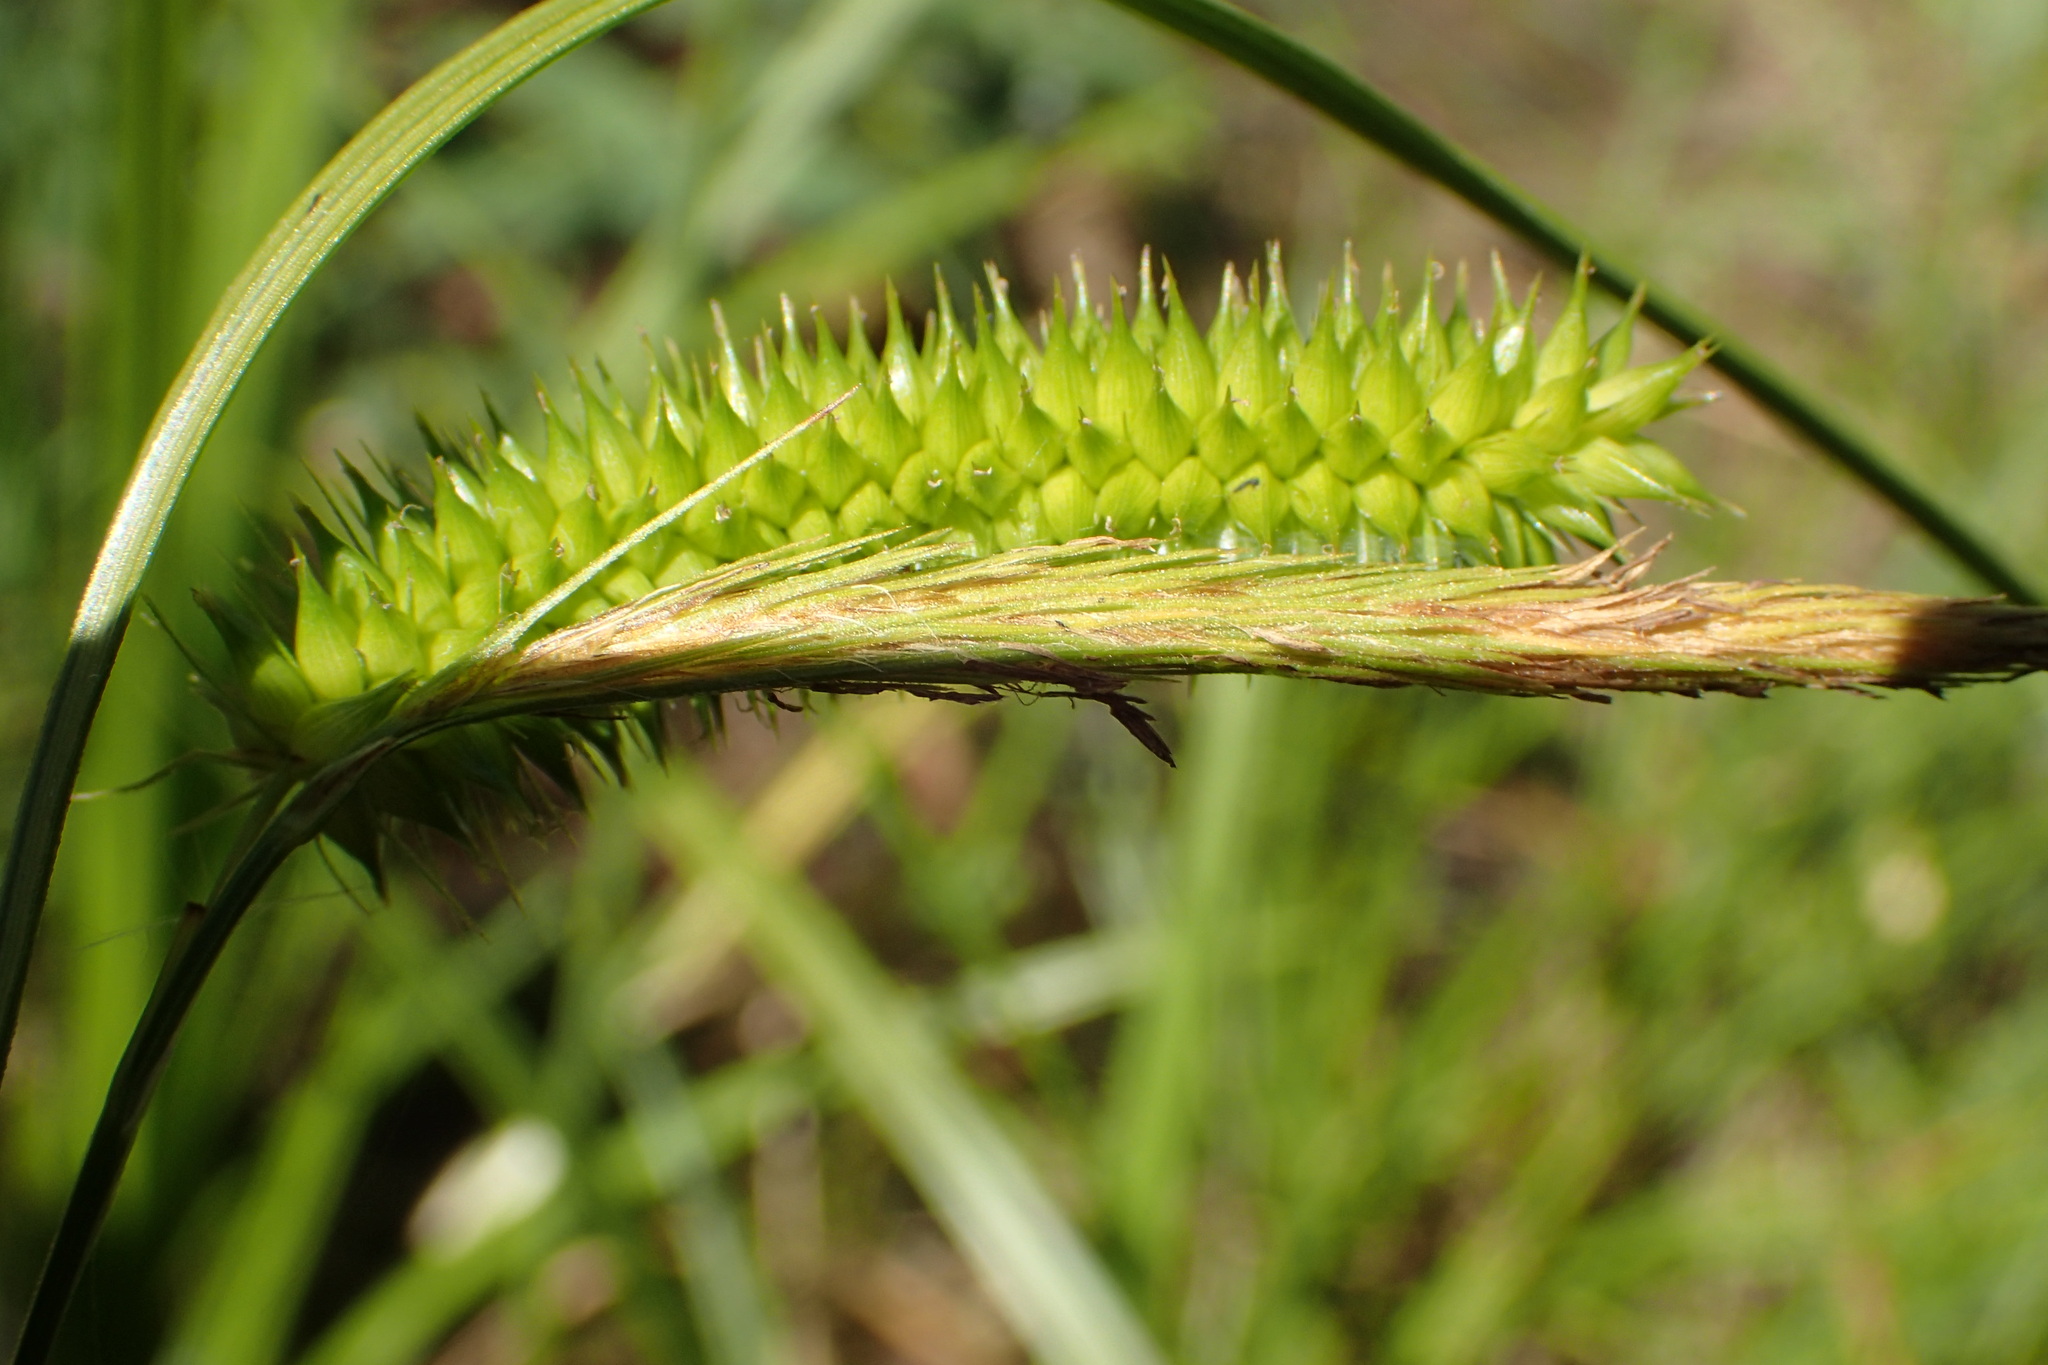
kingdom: Plantae
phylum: Tracheophyta
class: Liliopsida
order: Poales
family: Cyperaceae
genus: Carex
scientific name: Carex pseudocyperus
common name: Cyperus sedge
